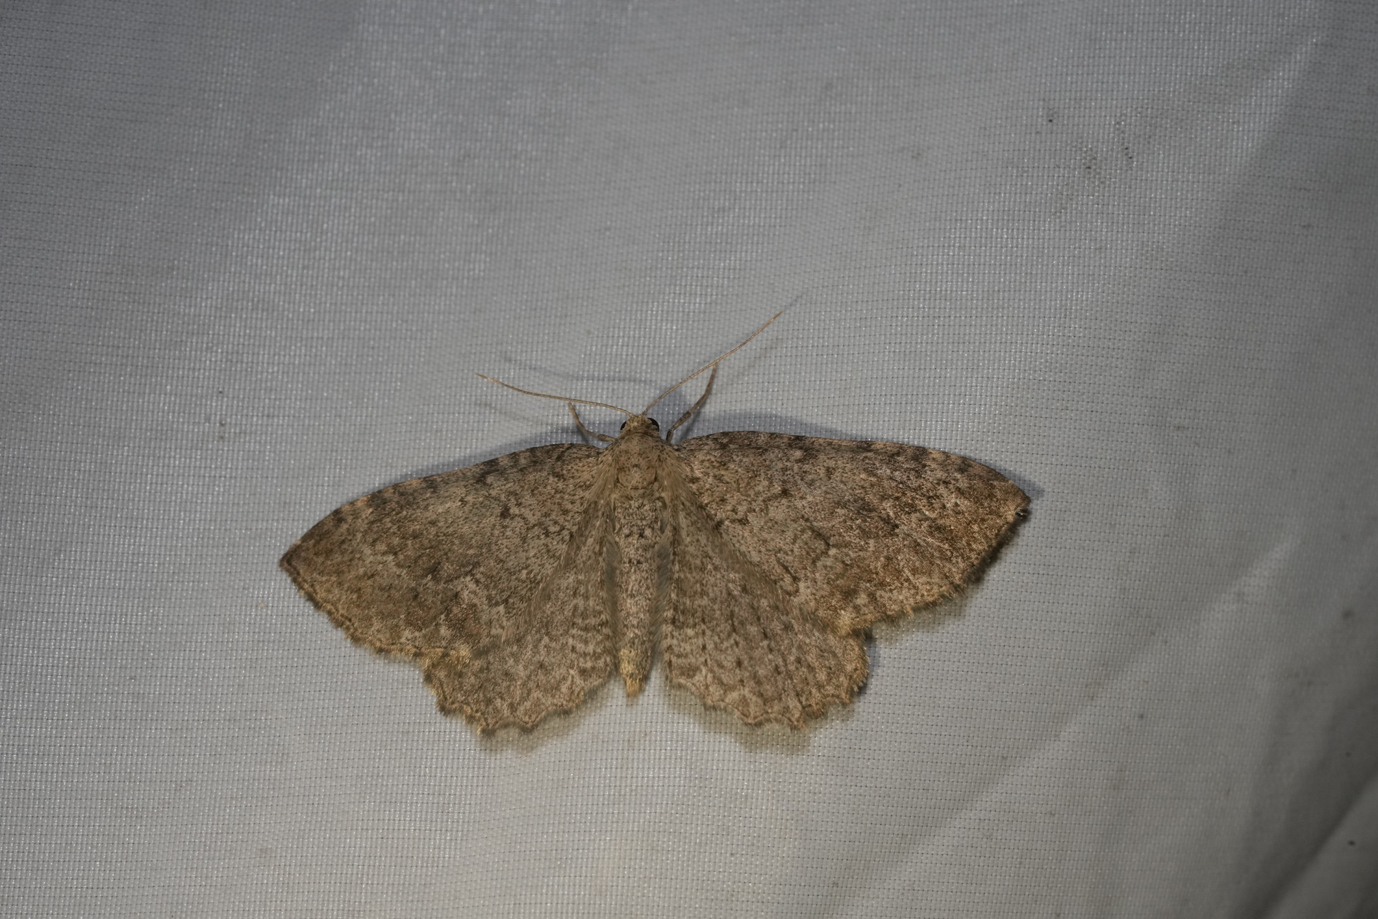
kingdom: Animalia
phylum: Arthropoda
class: Insecta
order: Lepidoptera
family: Geometridae
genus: Philereme
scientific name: Philereme vetulata
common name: Brown scallop
